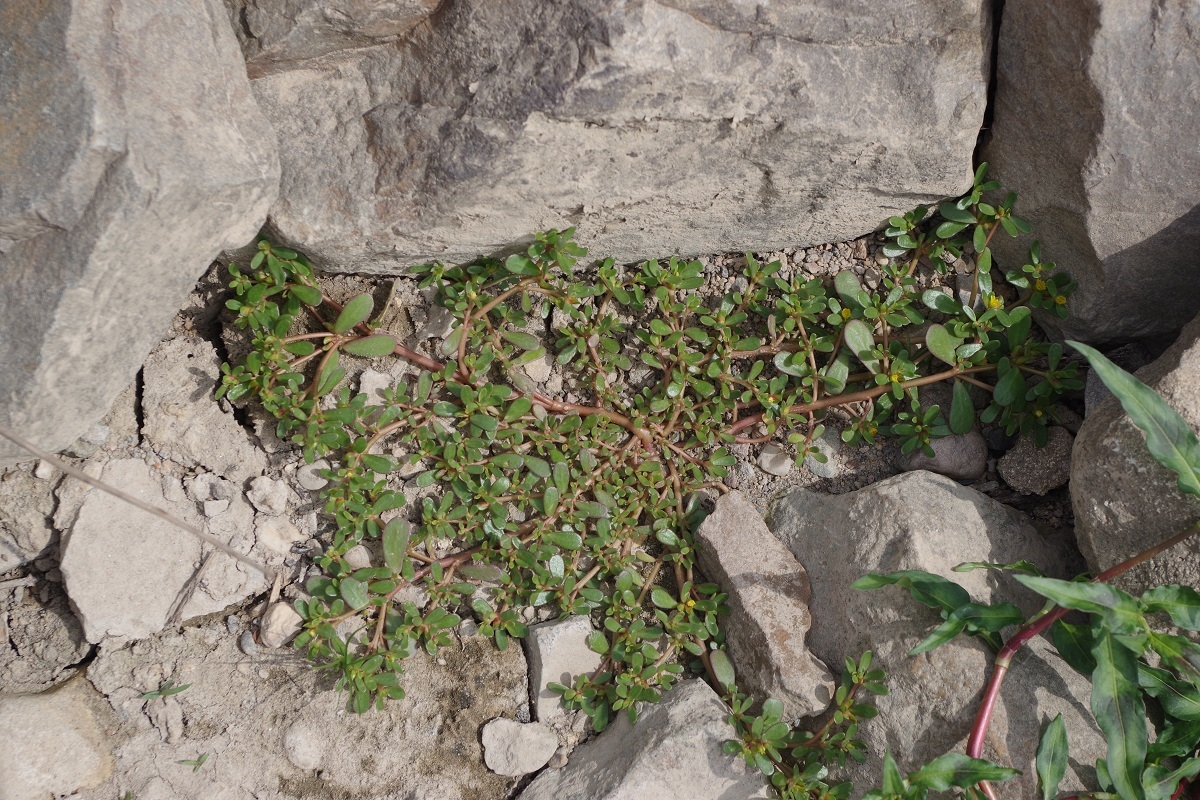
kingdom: Plantae
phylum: Tracheophyta
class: Magnoliopsida
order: Caryophyllales
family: Portulacaceae
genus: Portulaca
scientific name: Portulaca oleracea
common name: Common purslane
